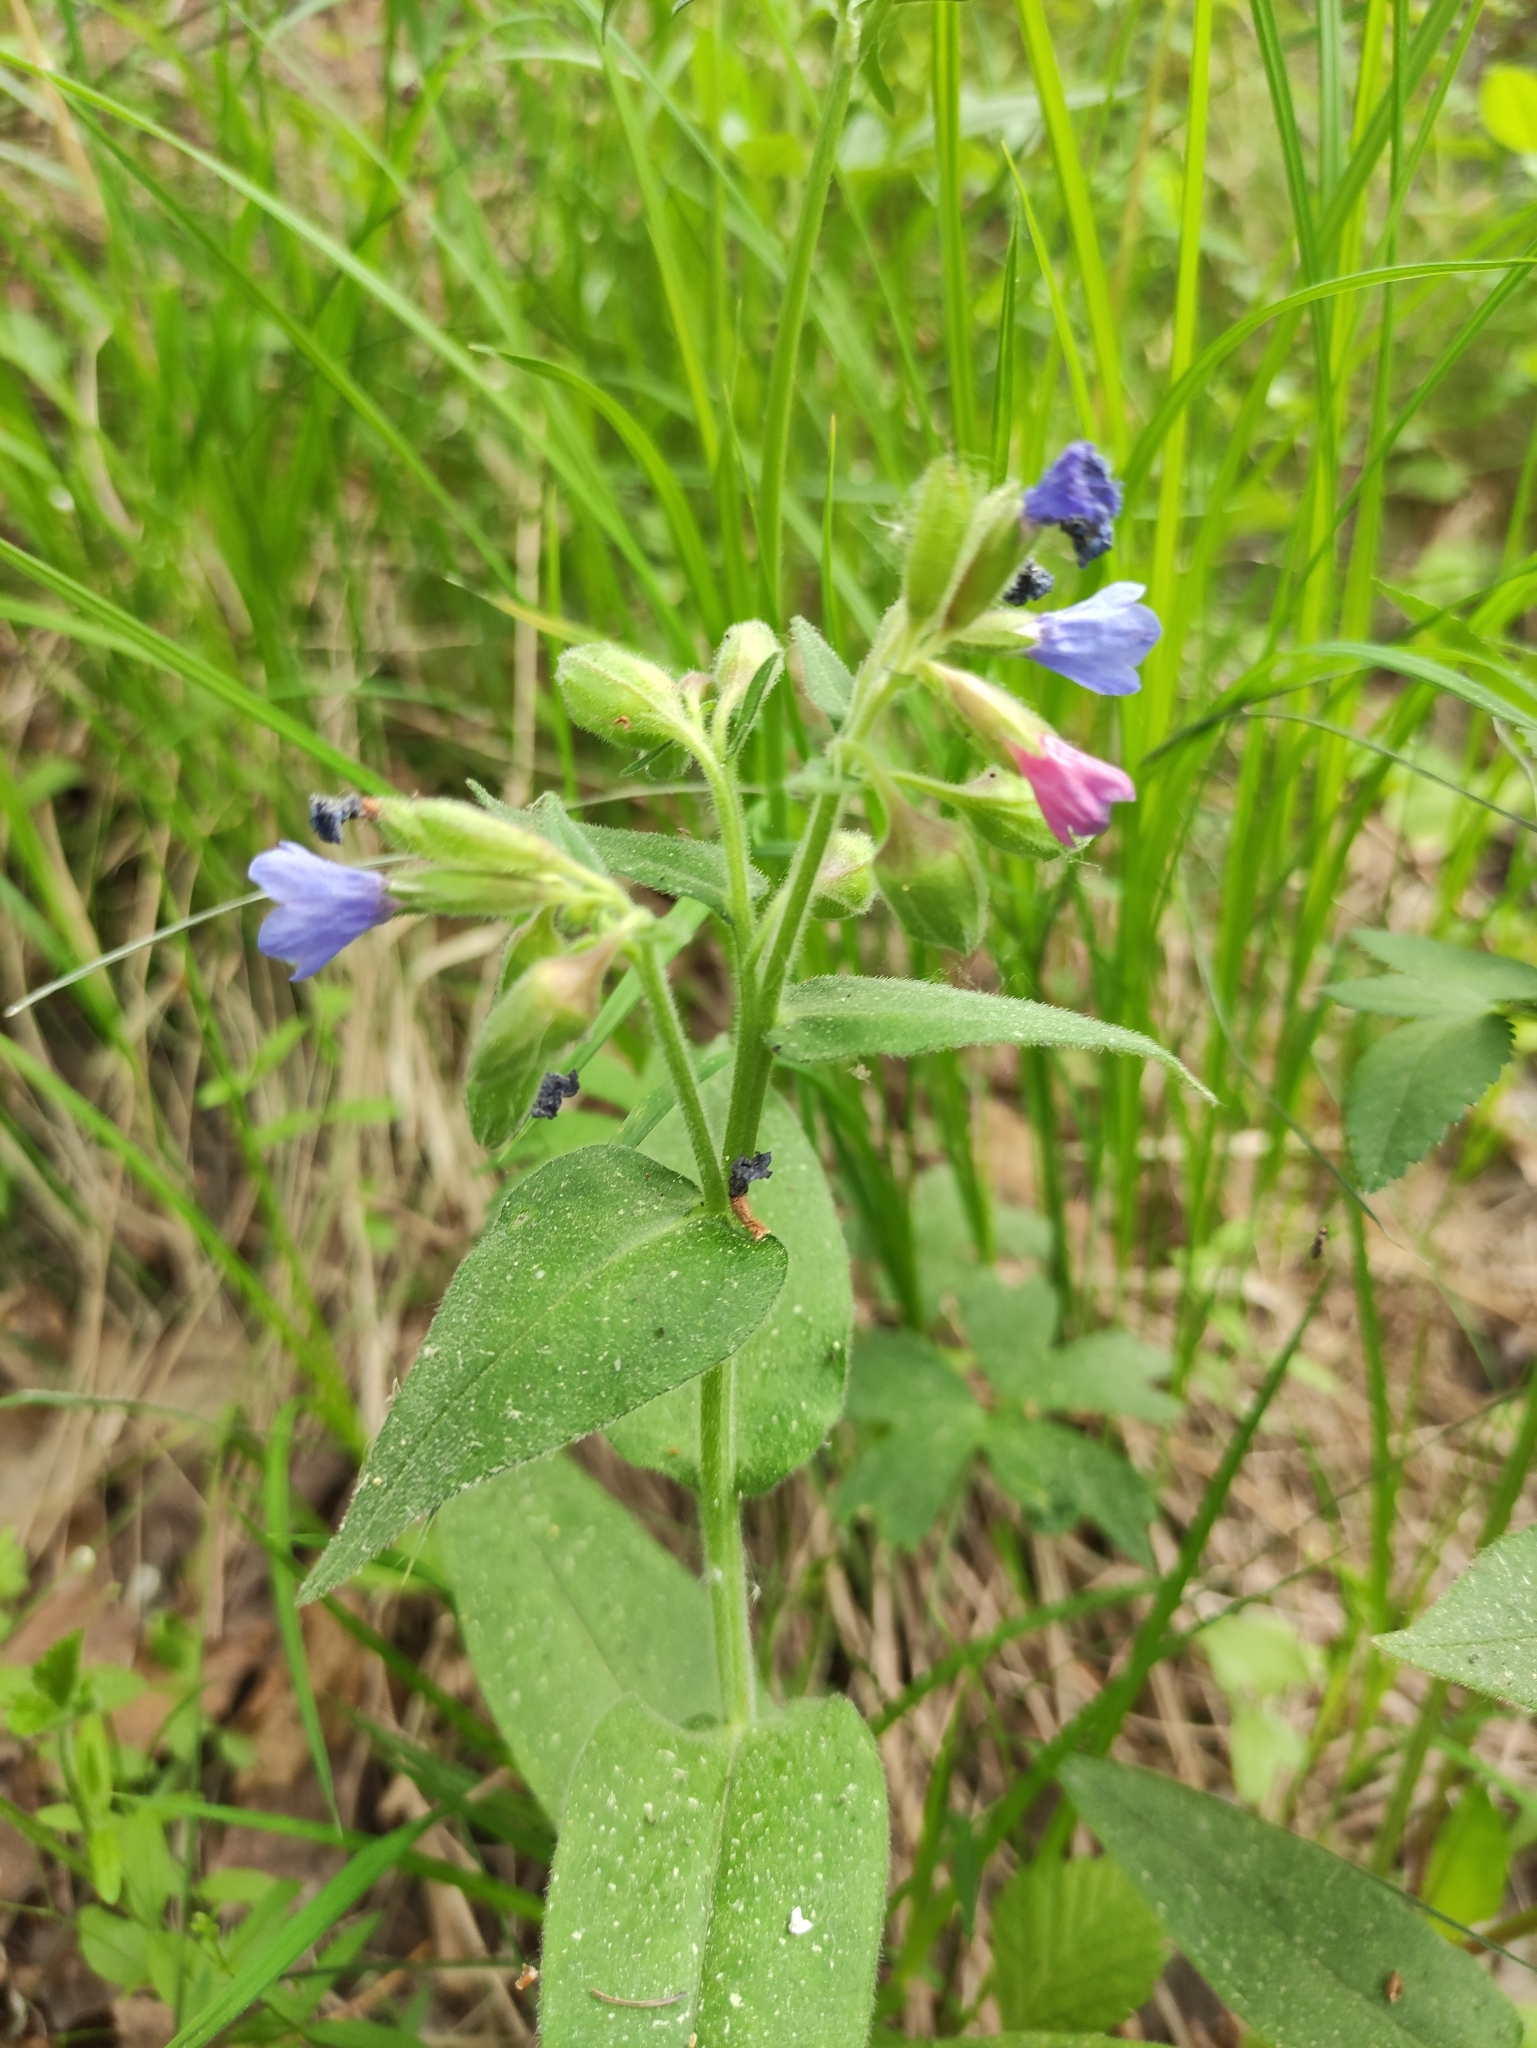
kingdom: Plantae
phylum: Tracheophyta
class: Magnoliopsida
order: Boraginales
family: Boraginaceae
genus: Pulmonaria
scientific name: Pulmonaria mollis
